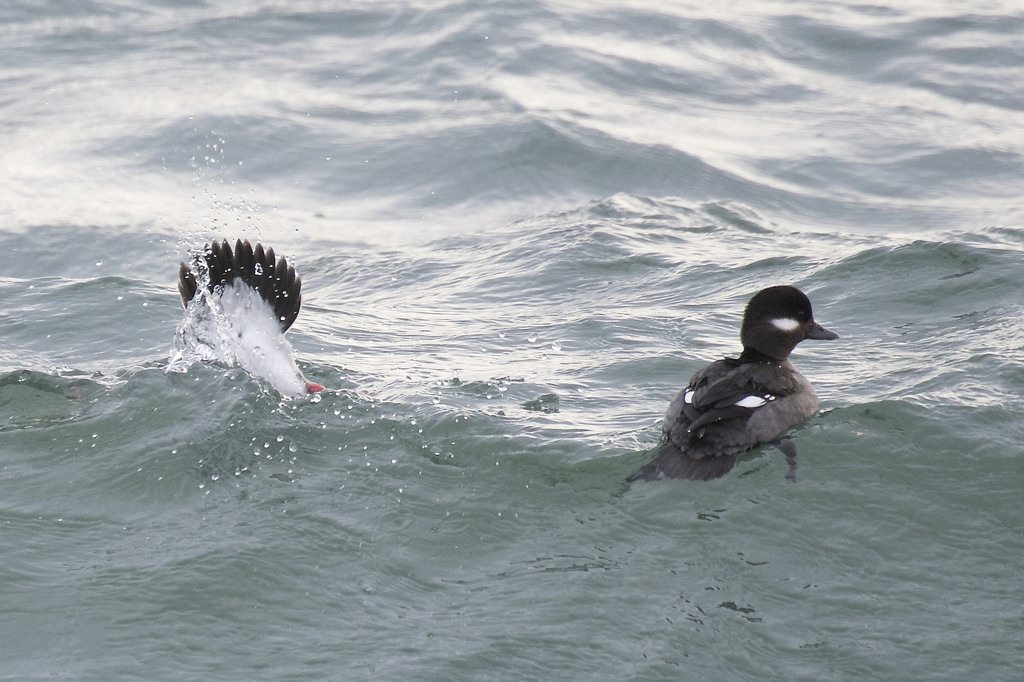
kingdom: Animalia
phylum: Chordata
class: Aves
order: Anseriformes
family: Anatidae
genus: Bucephala
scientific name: Bucephala albeola
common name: Bufflehead
